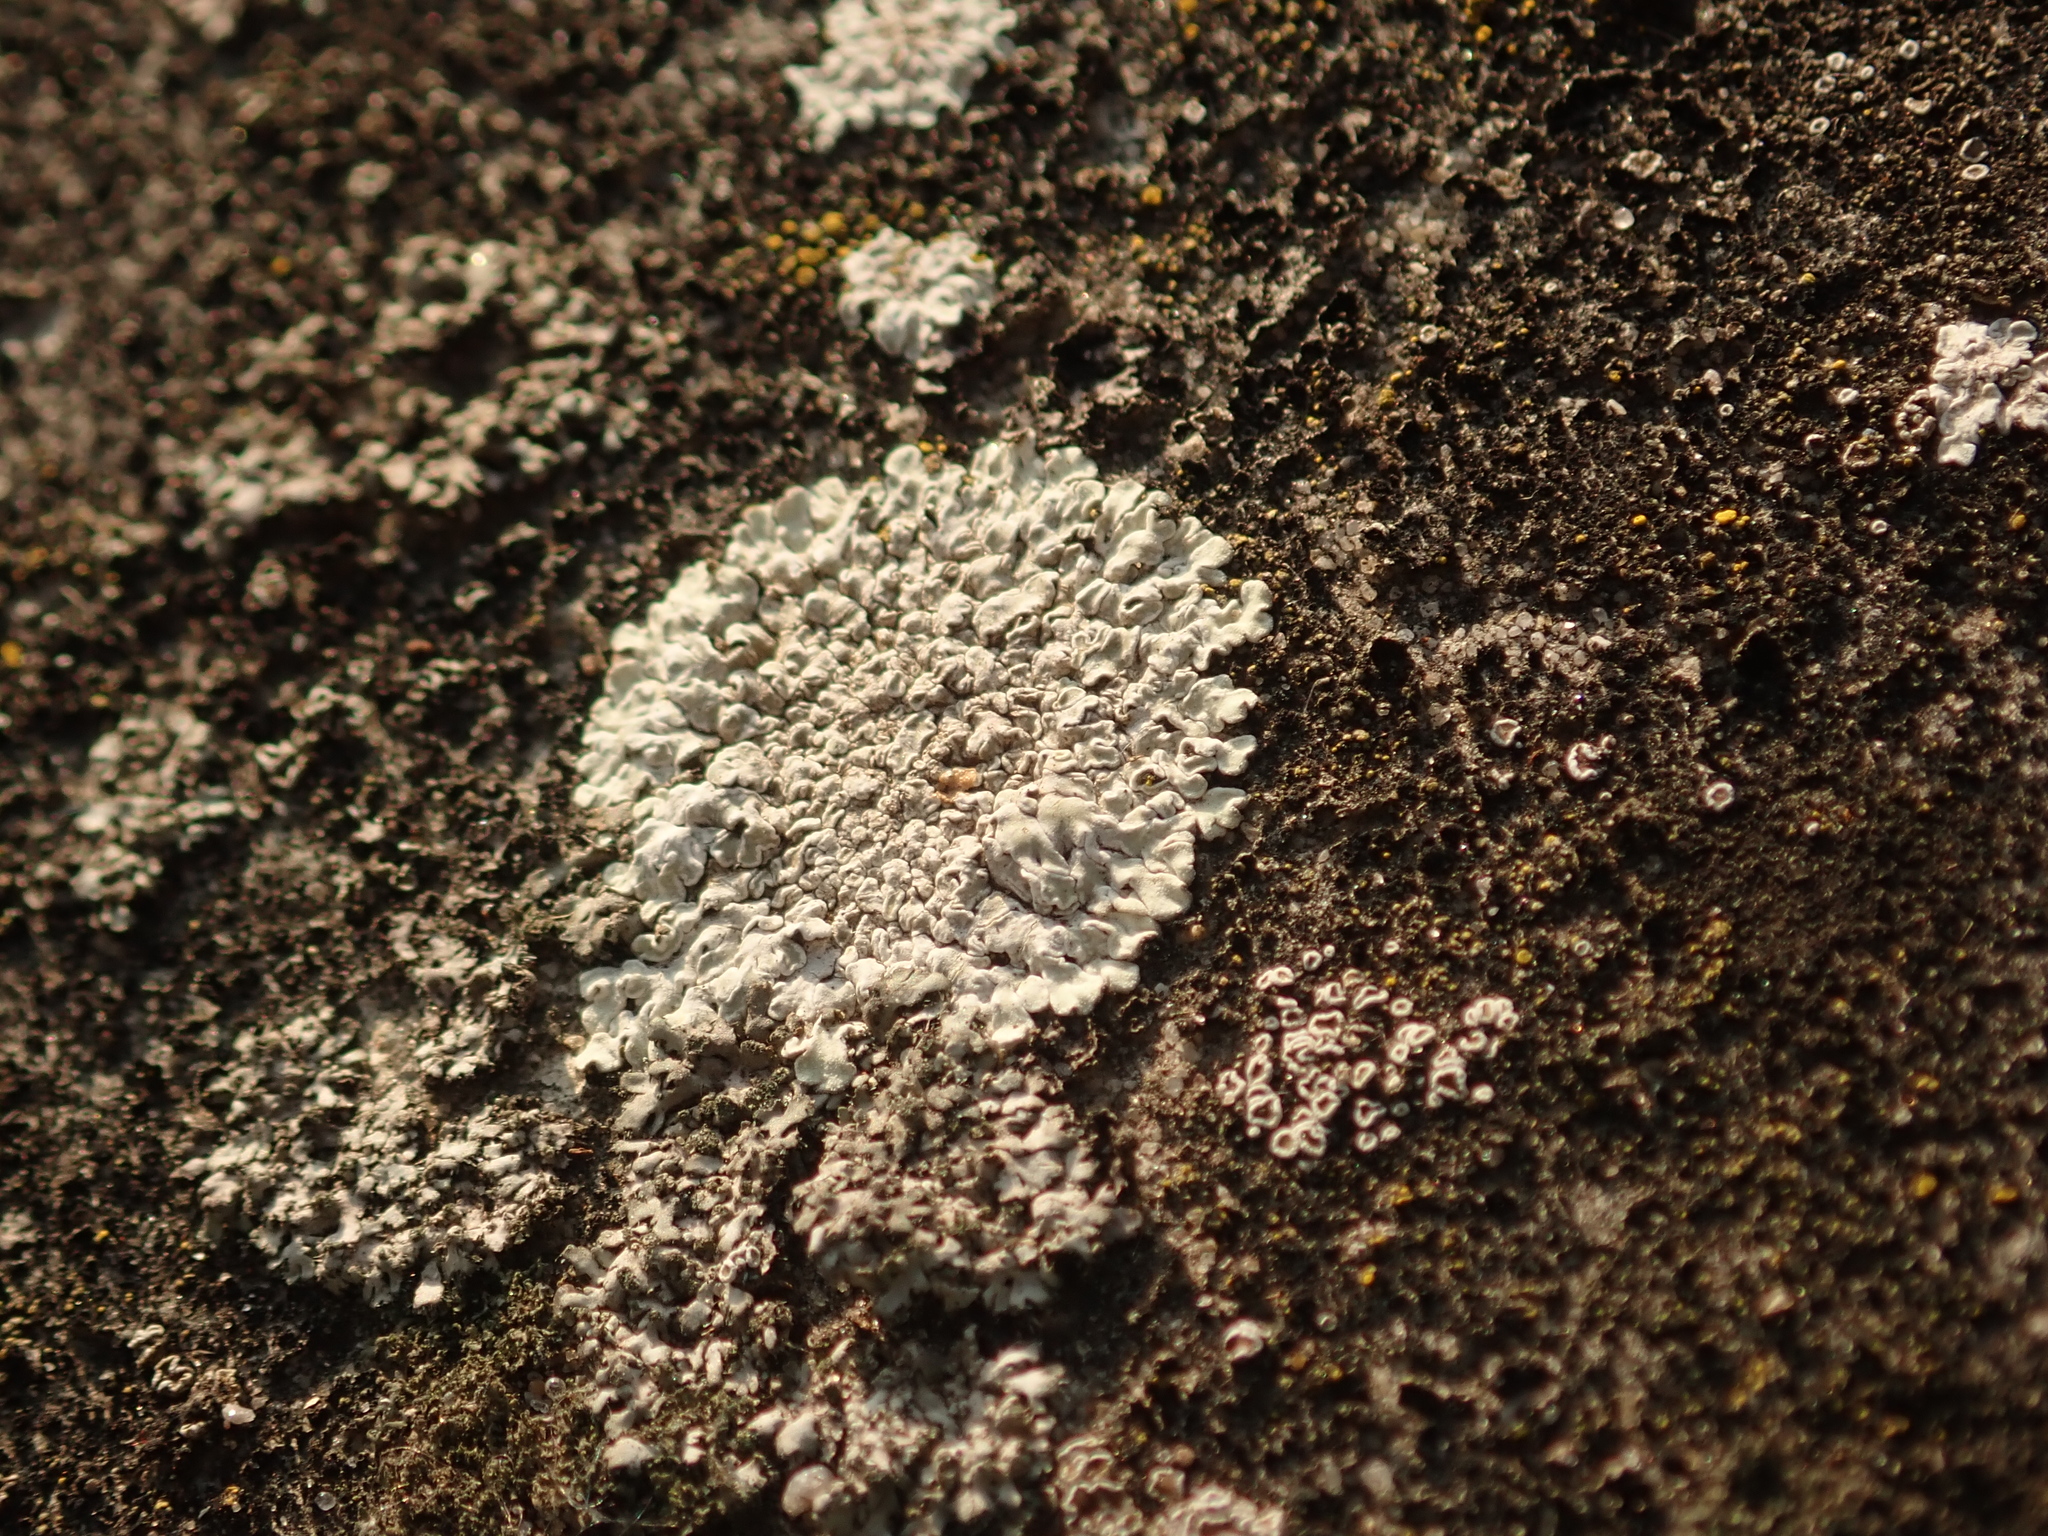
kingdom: Fungi
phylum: Ascomycota
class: Lecanoromycetes
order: Lecanorales
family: Lecanoraceae
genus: Protoparmeliopsis
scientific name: Protoparmeliopsis muralis
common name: Stonewall rim lichen
